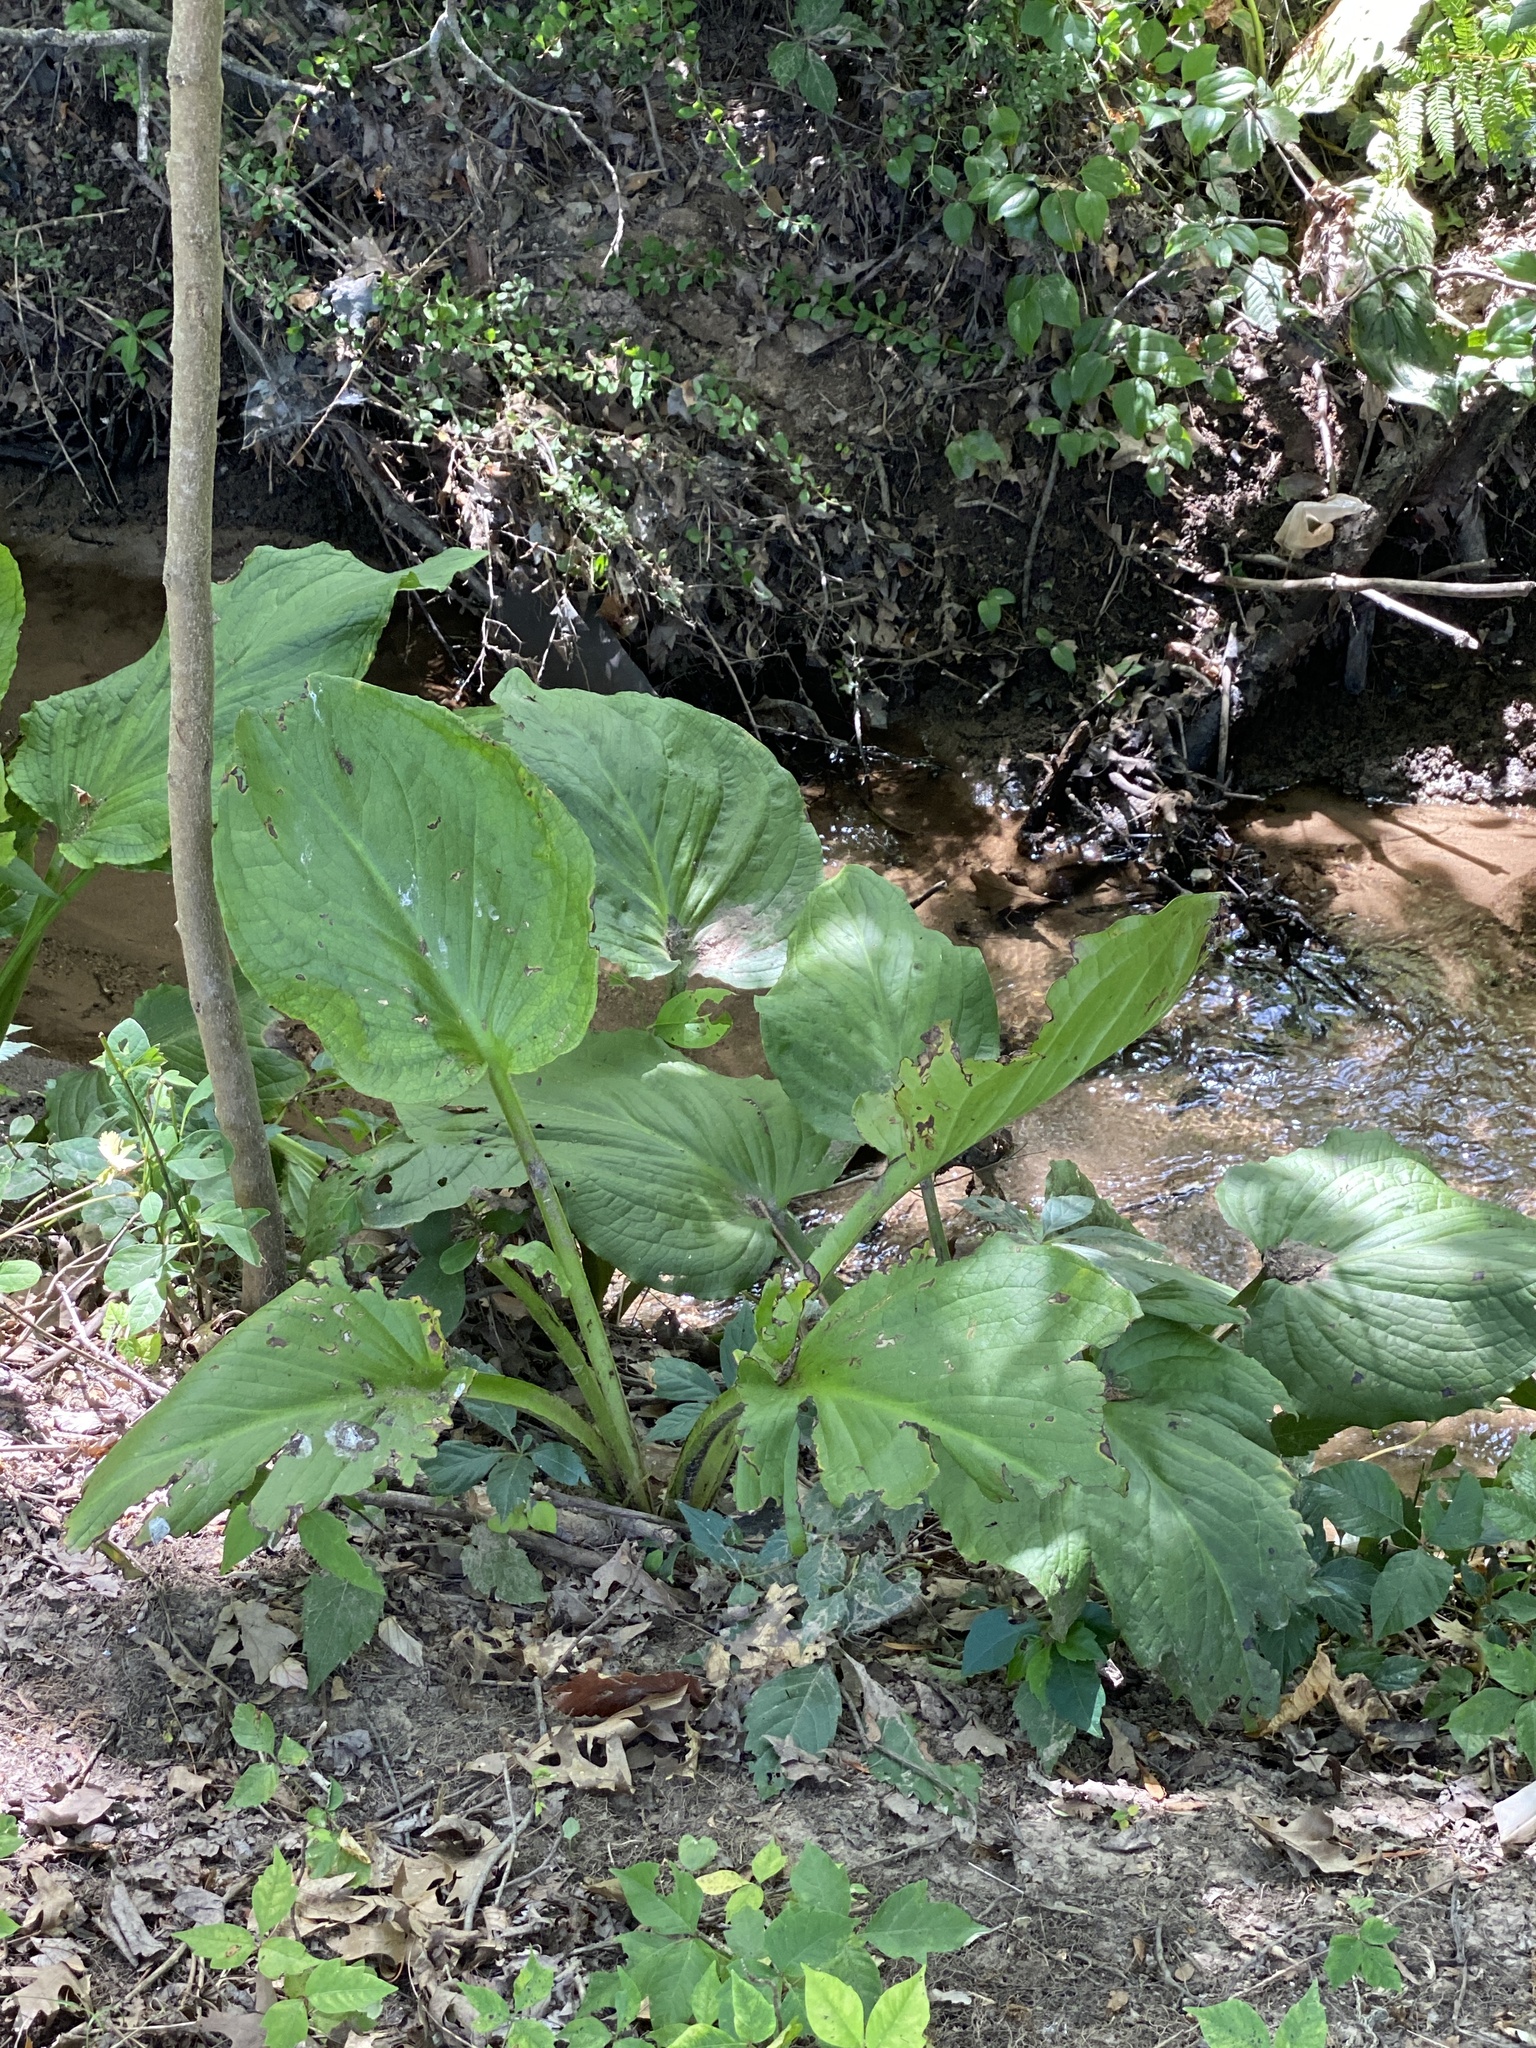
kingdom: Plantae
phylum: Tracheophyta
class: Liliopsida
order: Alismatales
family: Araceae
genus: Symplocarpus
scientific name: Symplocarpus foetidus
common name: Eastern skunk cabbage
